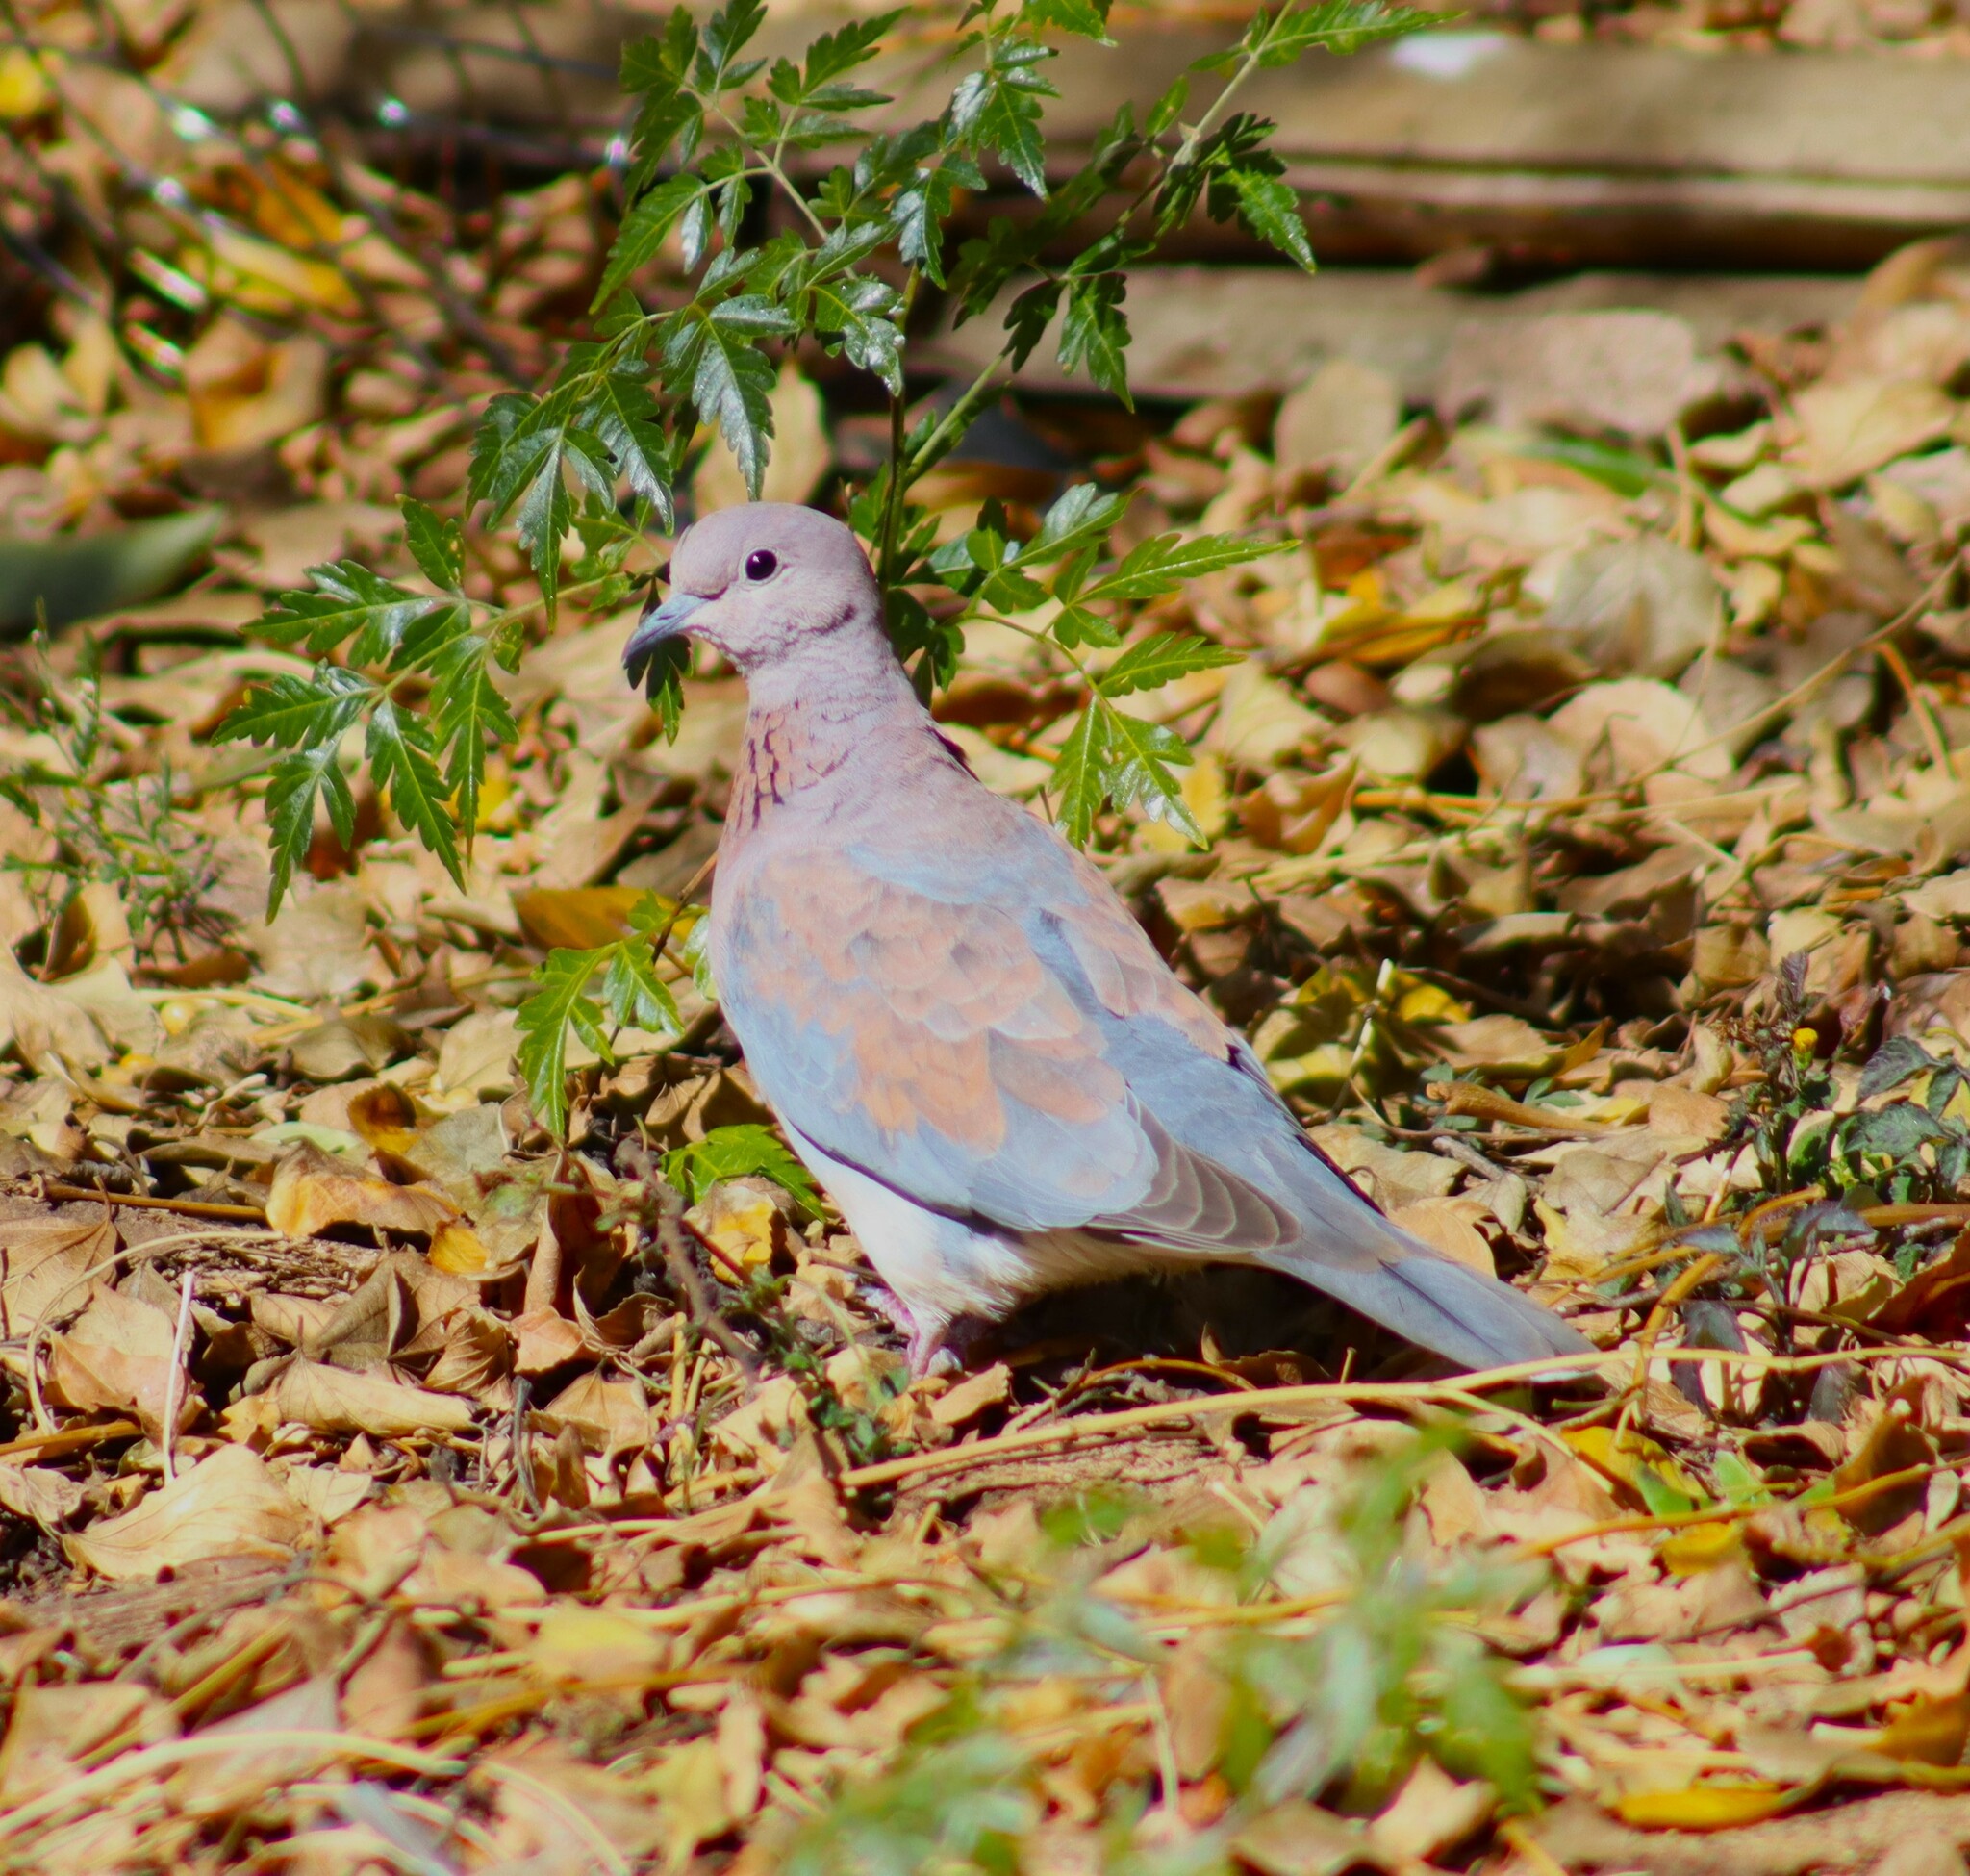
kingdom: Animalia
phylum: Chordata
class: Aves
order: Columbiformes
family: Columbidae
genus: Spilopelia
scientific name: Spilopelia senegalensis
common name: Laughing dove
